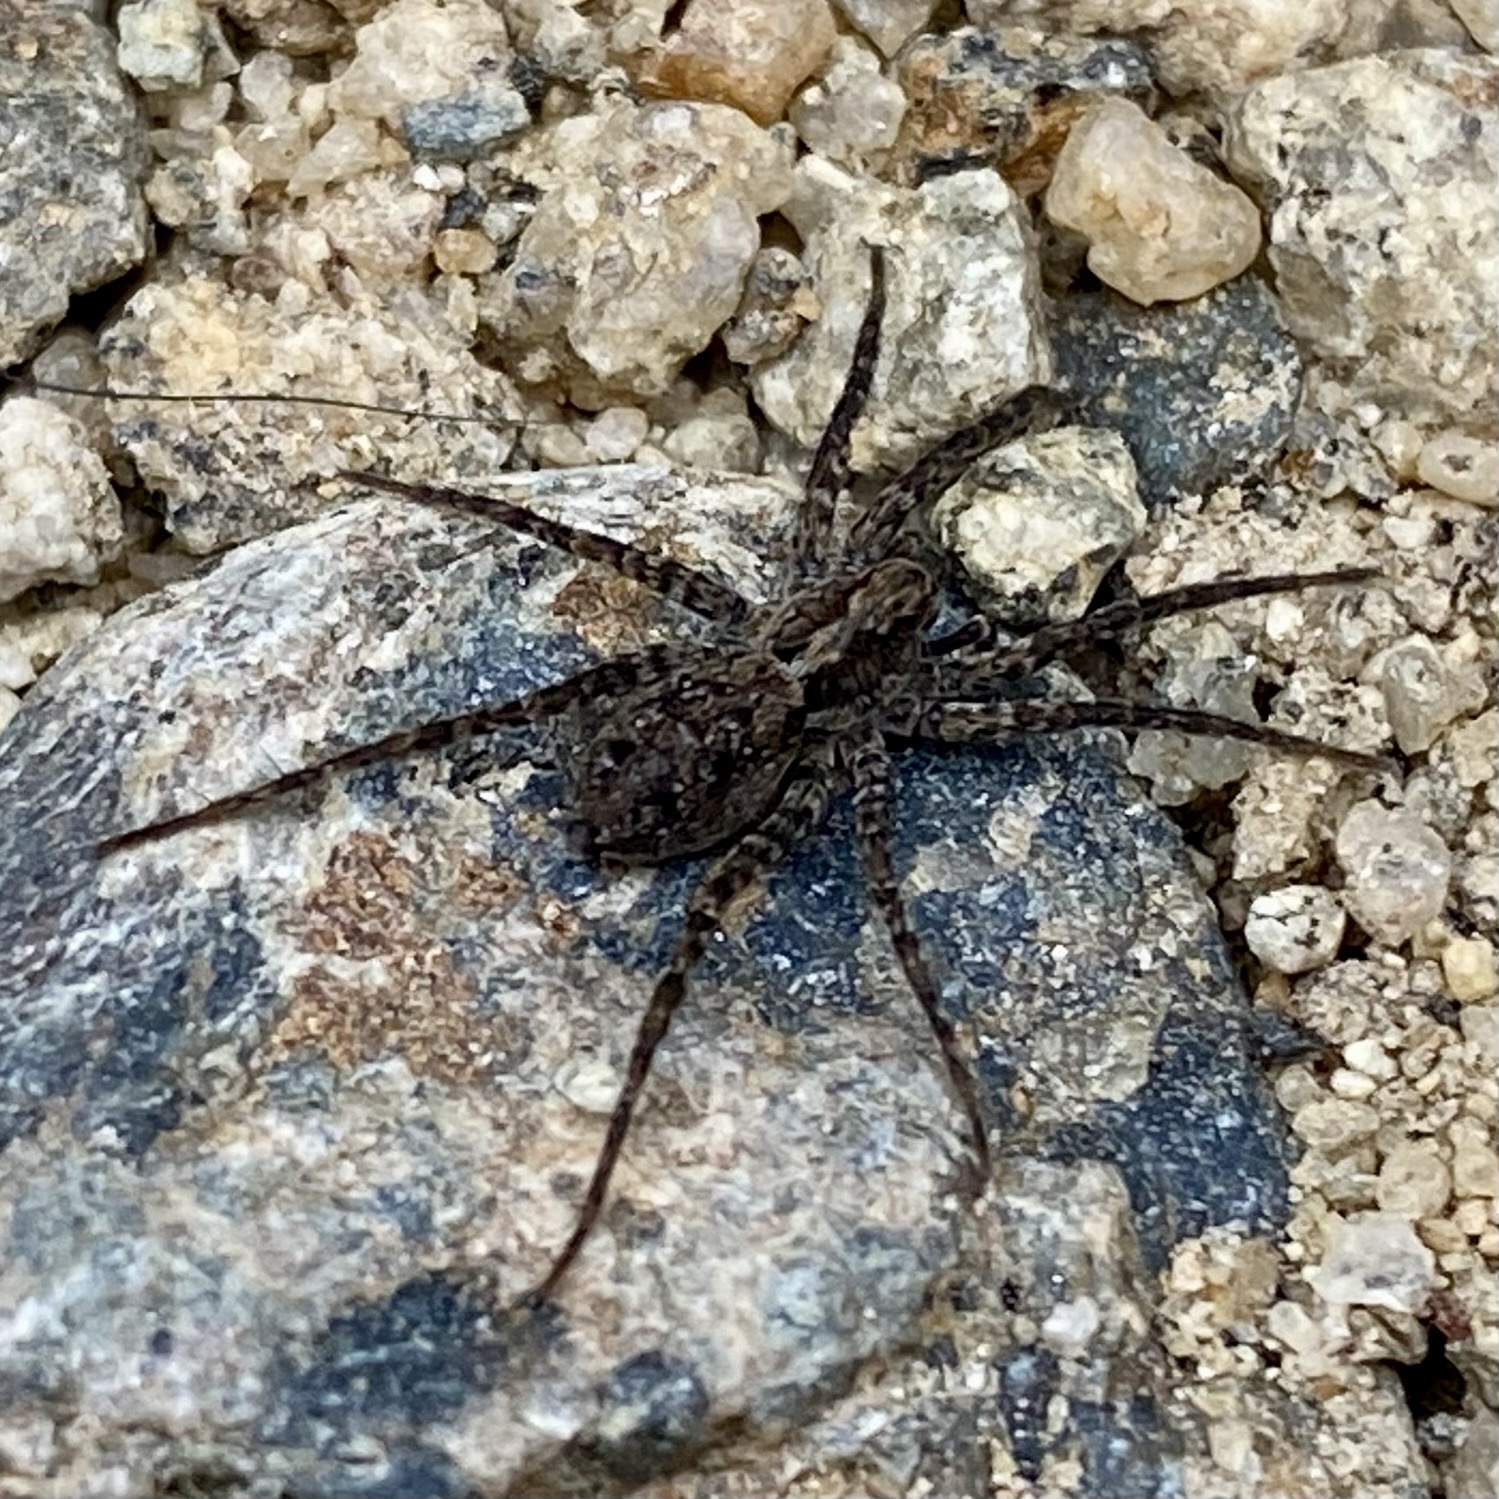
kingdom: Animalia
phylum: Arthropoda
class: Arachnida
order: Araneae
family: Lycosidae
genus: Pardosa
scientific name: Pardosa
